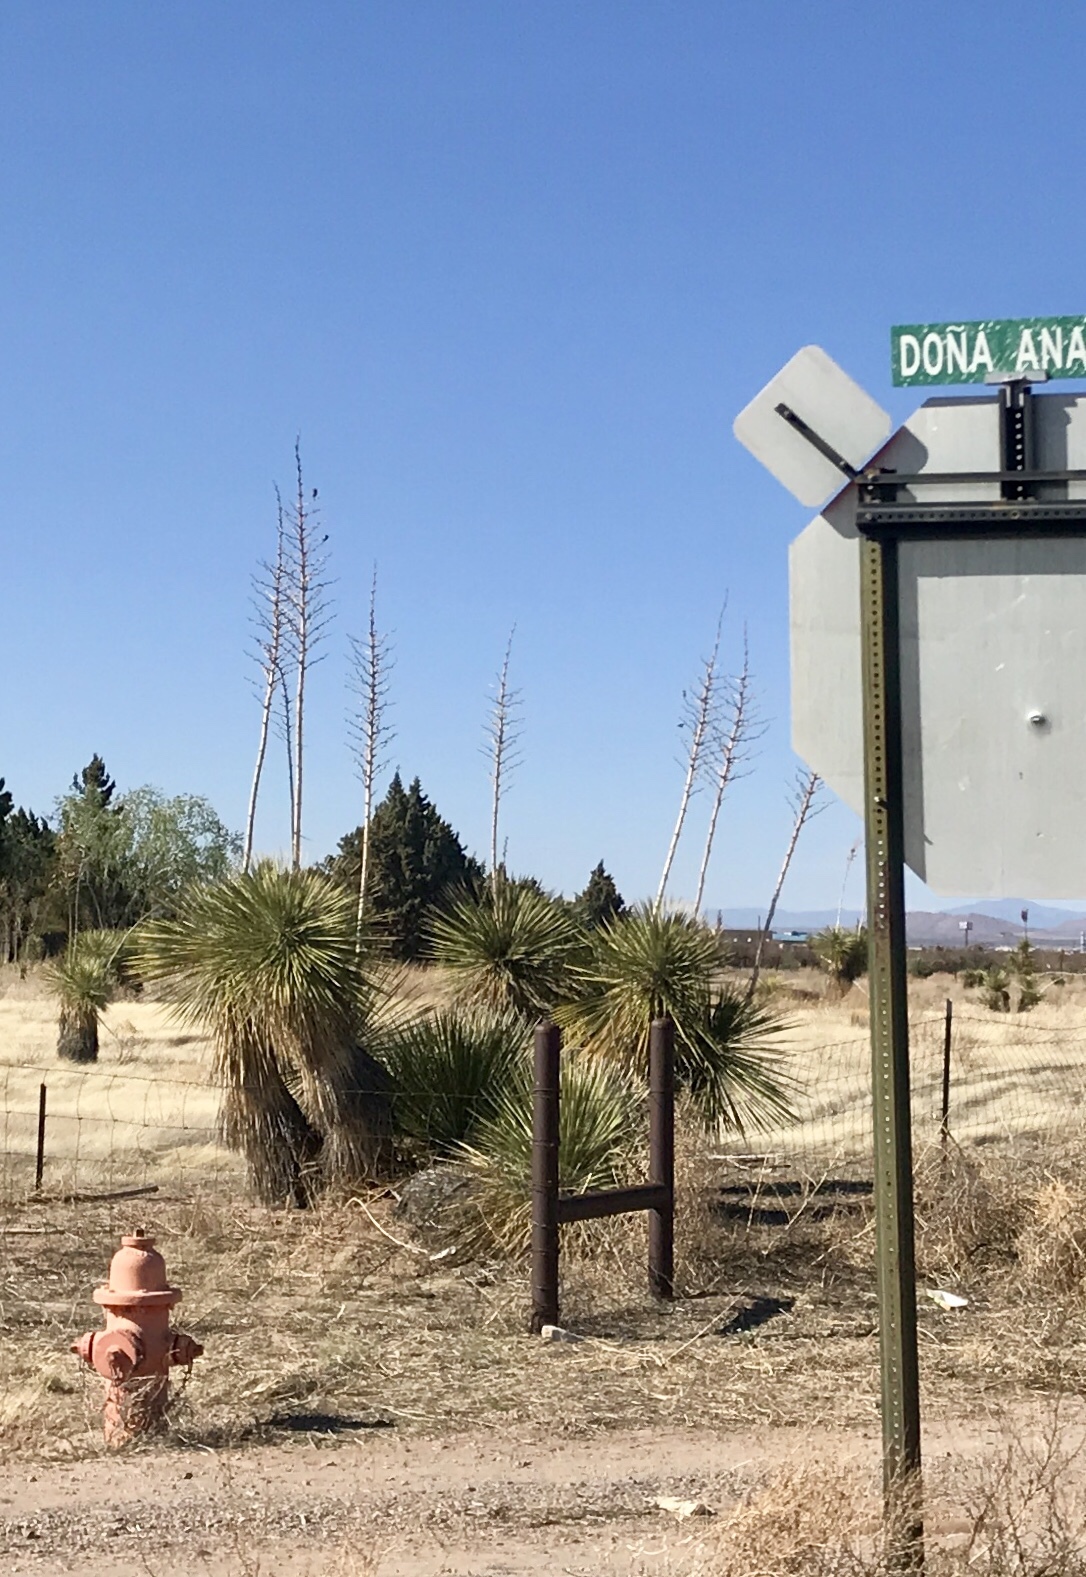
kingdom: Plantae
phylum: Tracheophyta
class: Liliopsida
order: Asparagales
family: Asparagaceae
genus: Yucca
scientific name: Yucca elata
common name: Palmella
